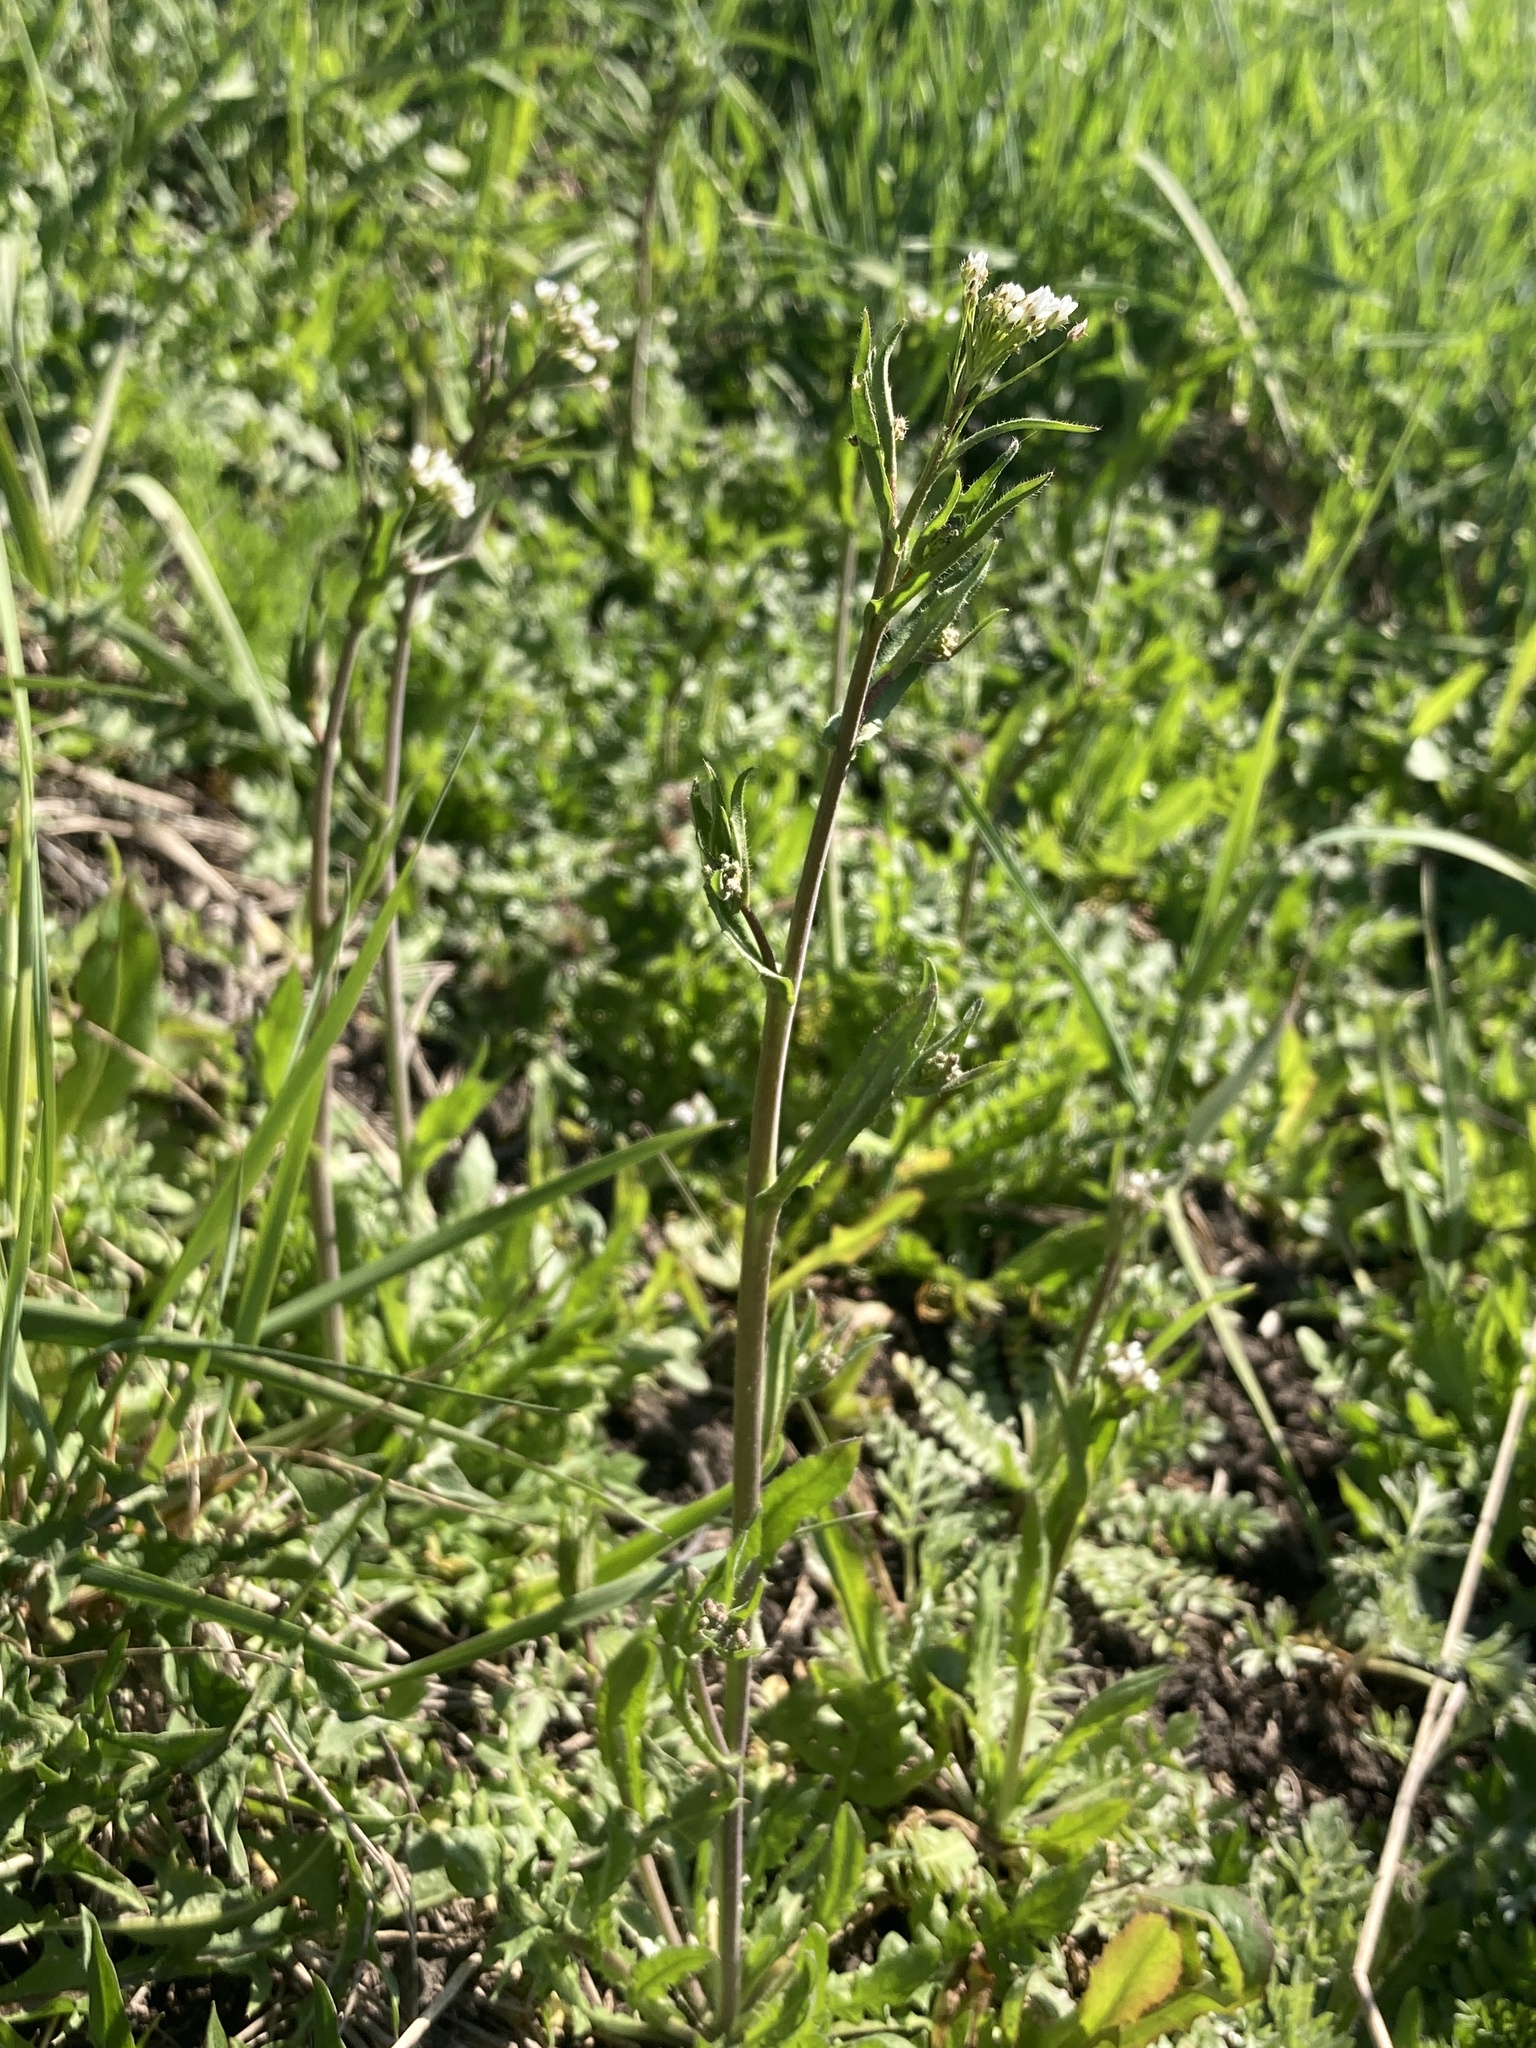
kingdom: Plantae
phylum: Tracheophyta
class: Magnoliopsida
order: Brassicales
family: Brassicaceae
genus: Capsella
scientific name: Capsella bursa-pastoris
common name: Shepherd's purse
